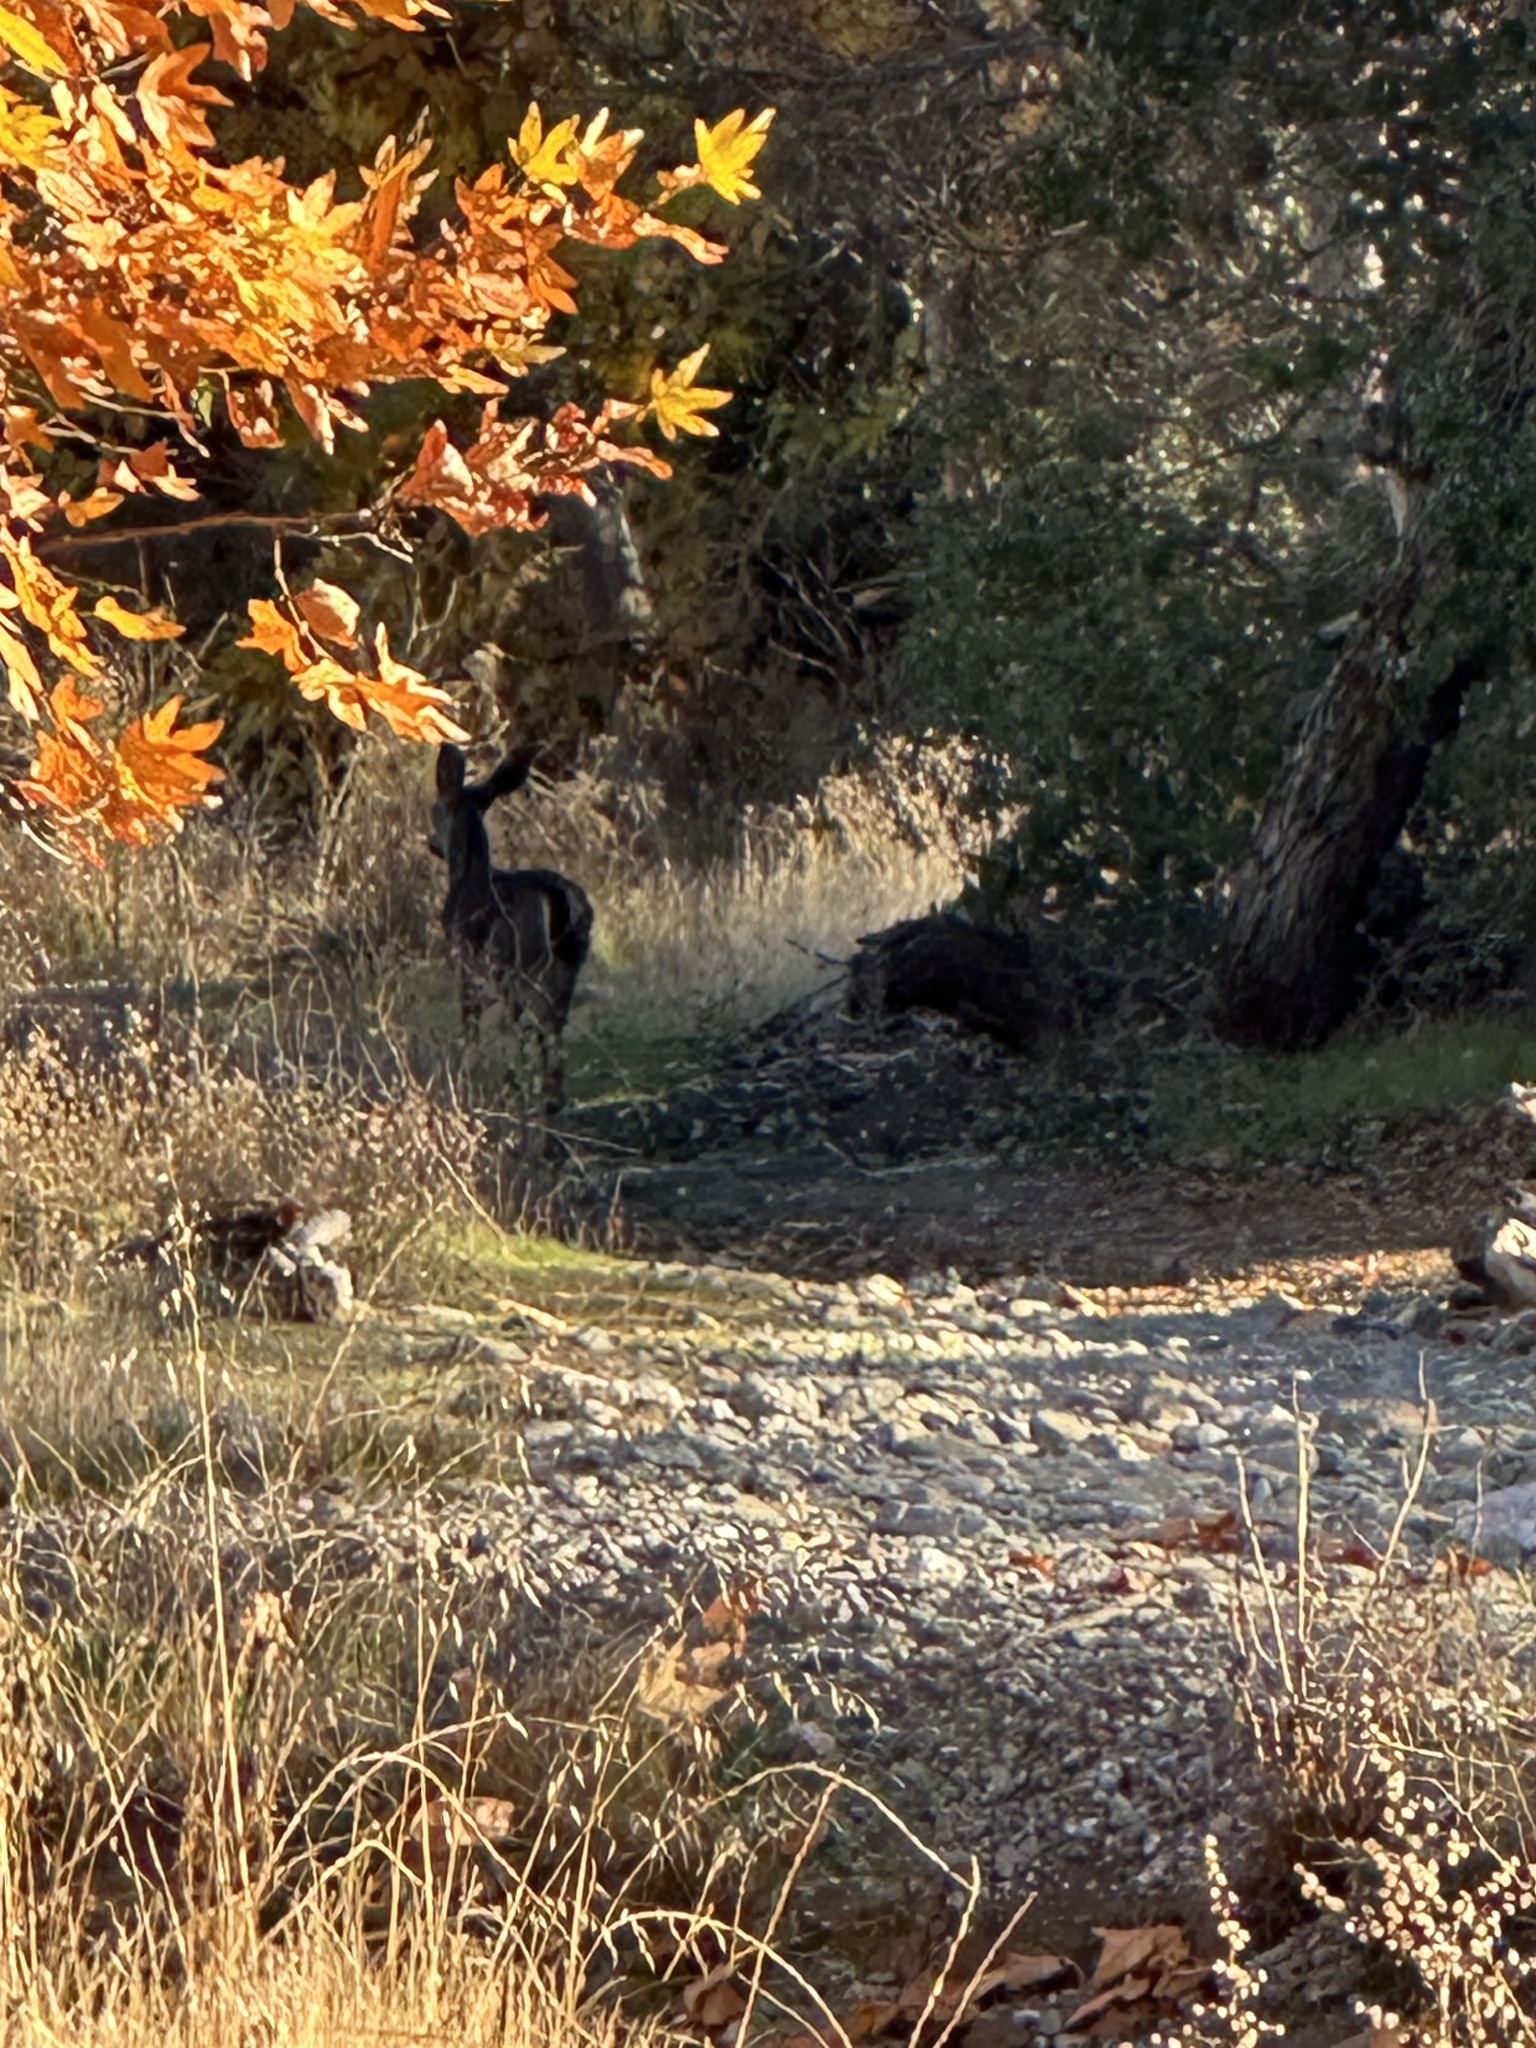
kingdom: Animalia
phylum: Chordata
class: Mammalia
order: Artiodactyla
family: Cervidae
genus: Odocoileus
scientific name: Odocoileus hemionus
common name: Mule deer
